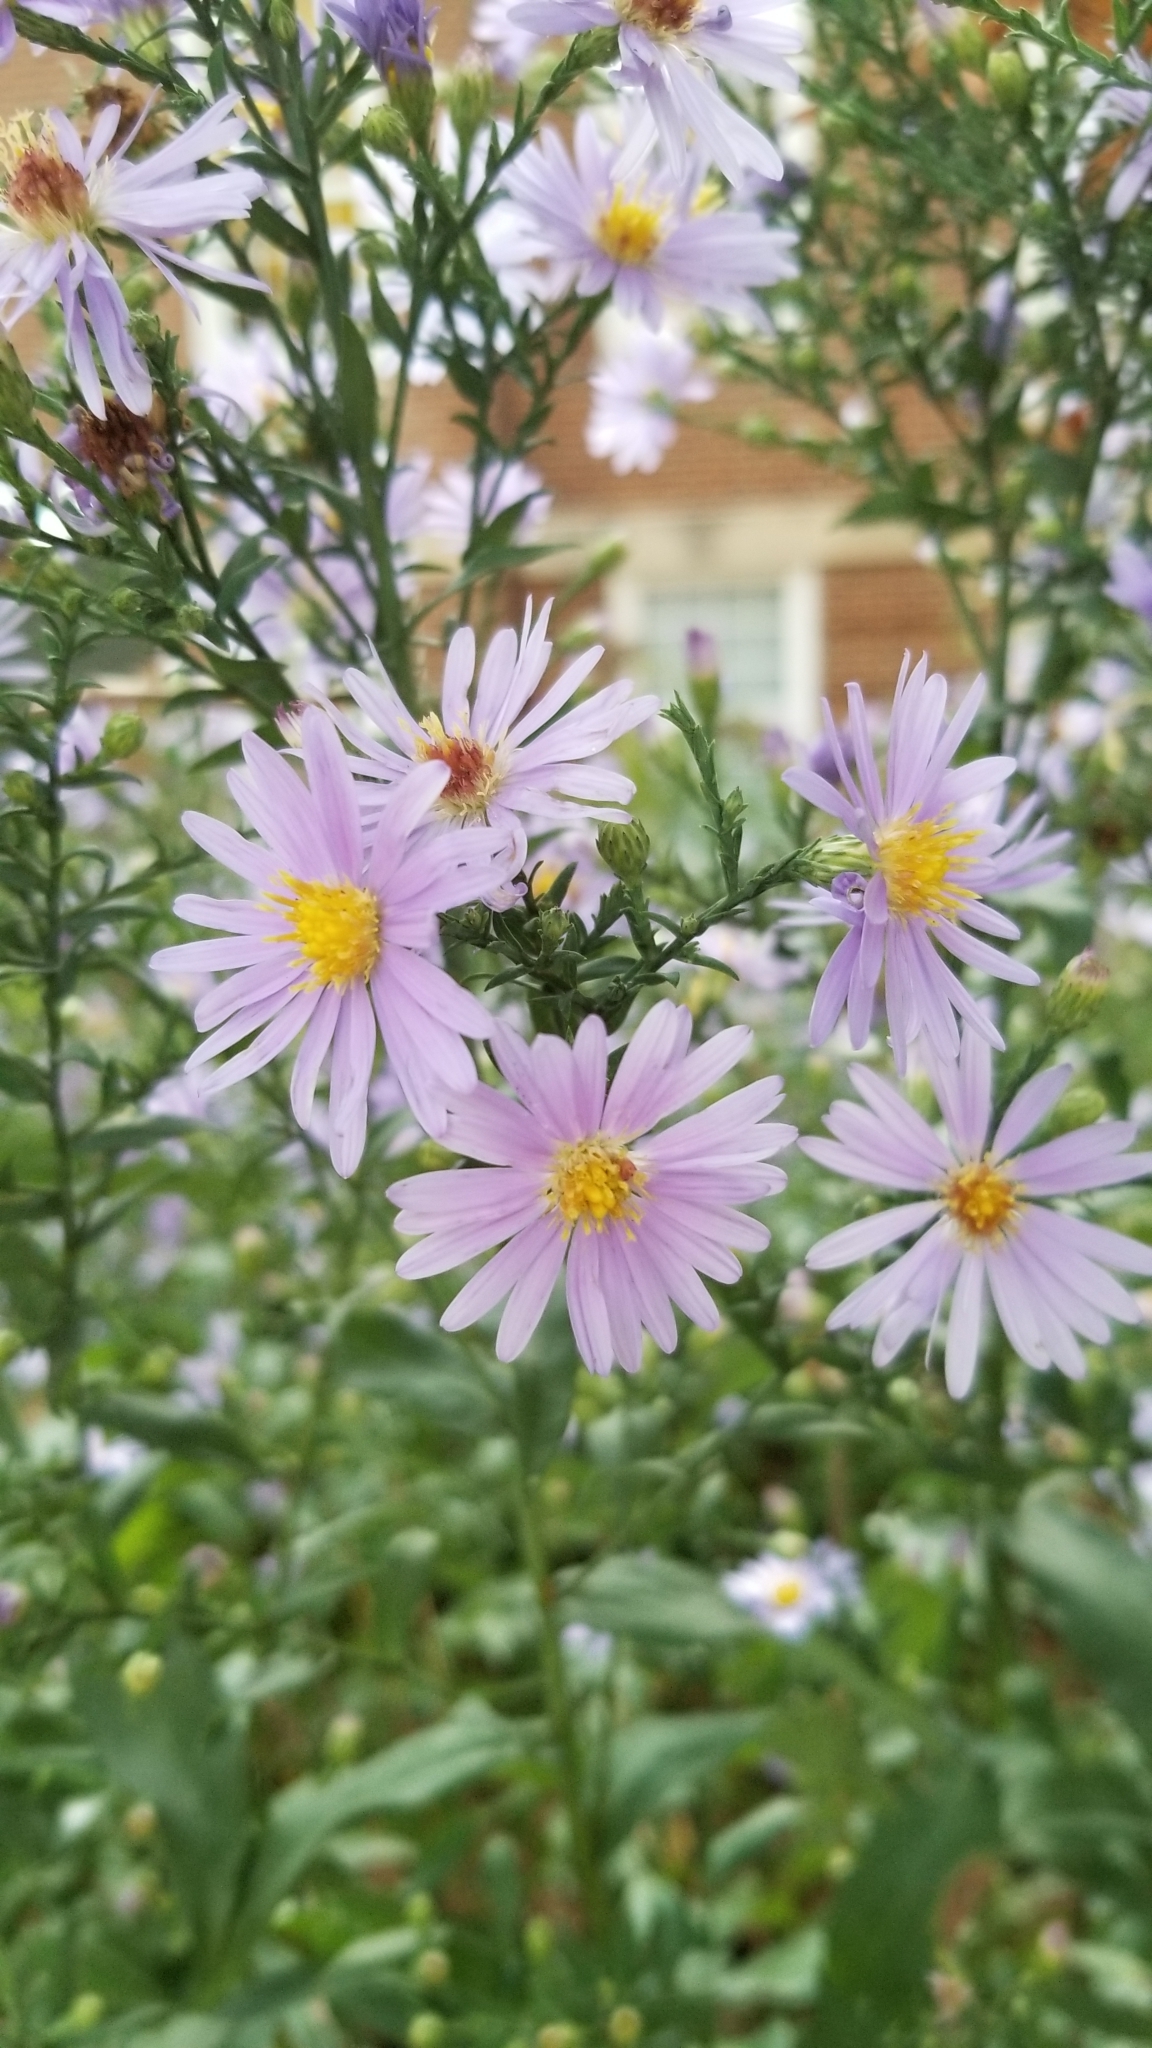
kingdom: Plantae
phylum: Tracheophyta
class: Magnoliopsida
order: Asterales
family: Asteraceae
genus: Symphyotrichum
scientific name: Symphyotrichum laeve
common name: Glaucous aster
